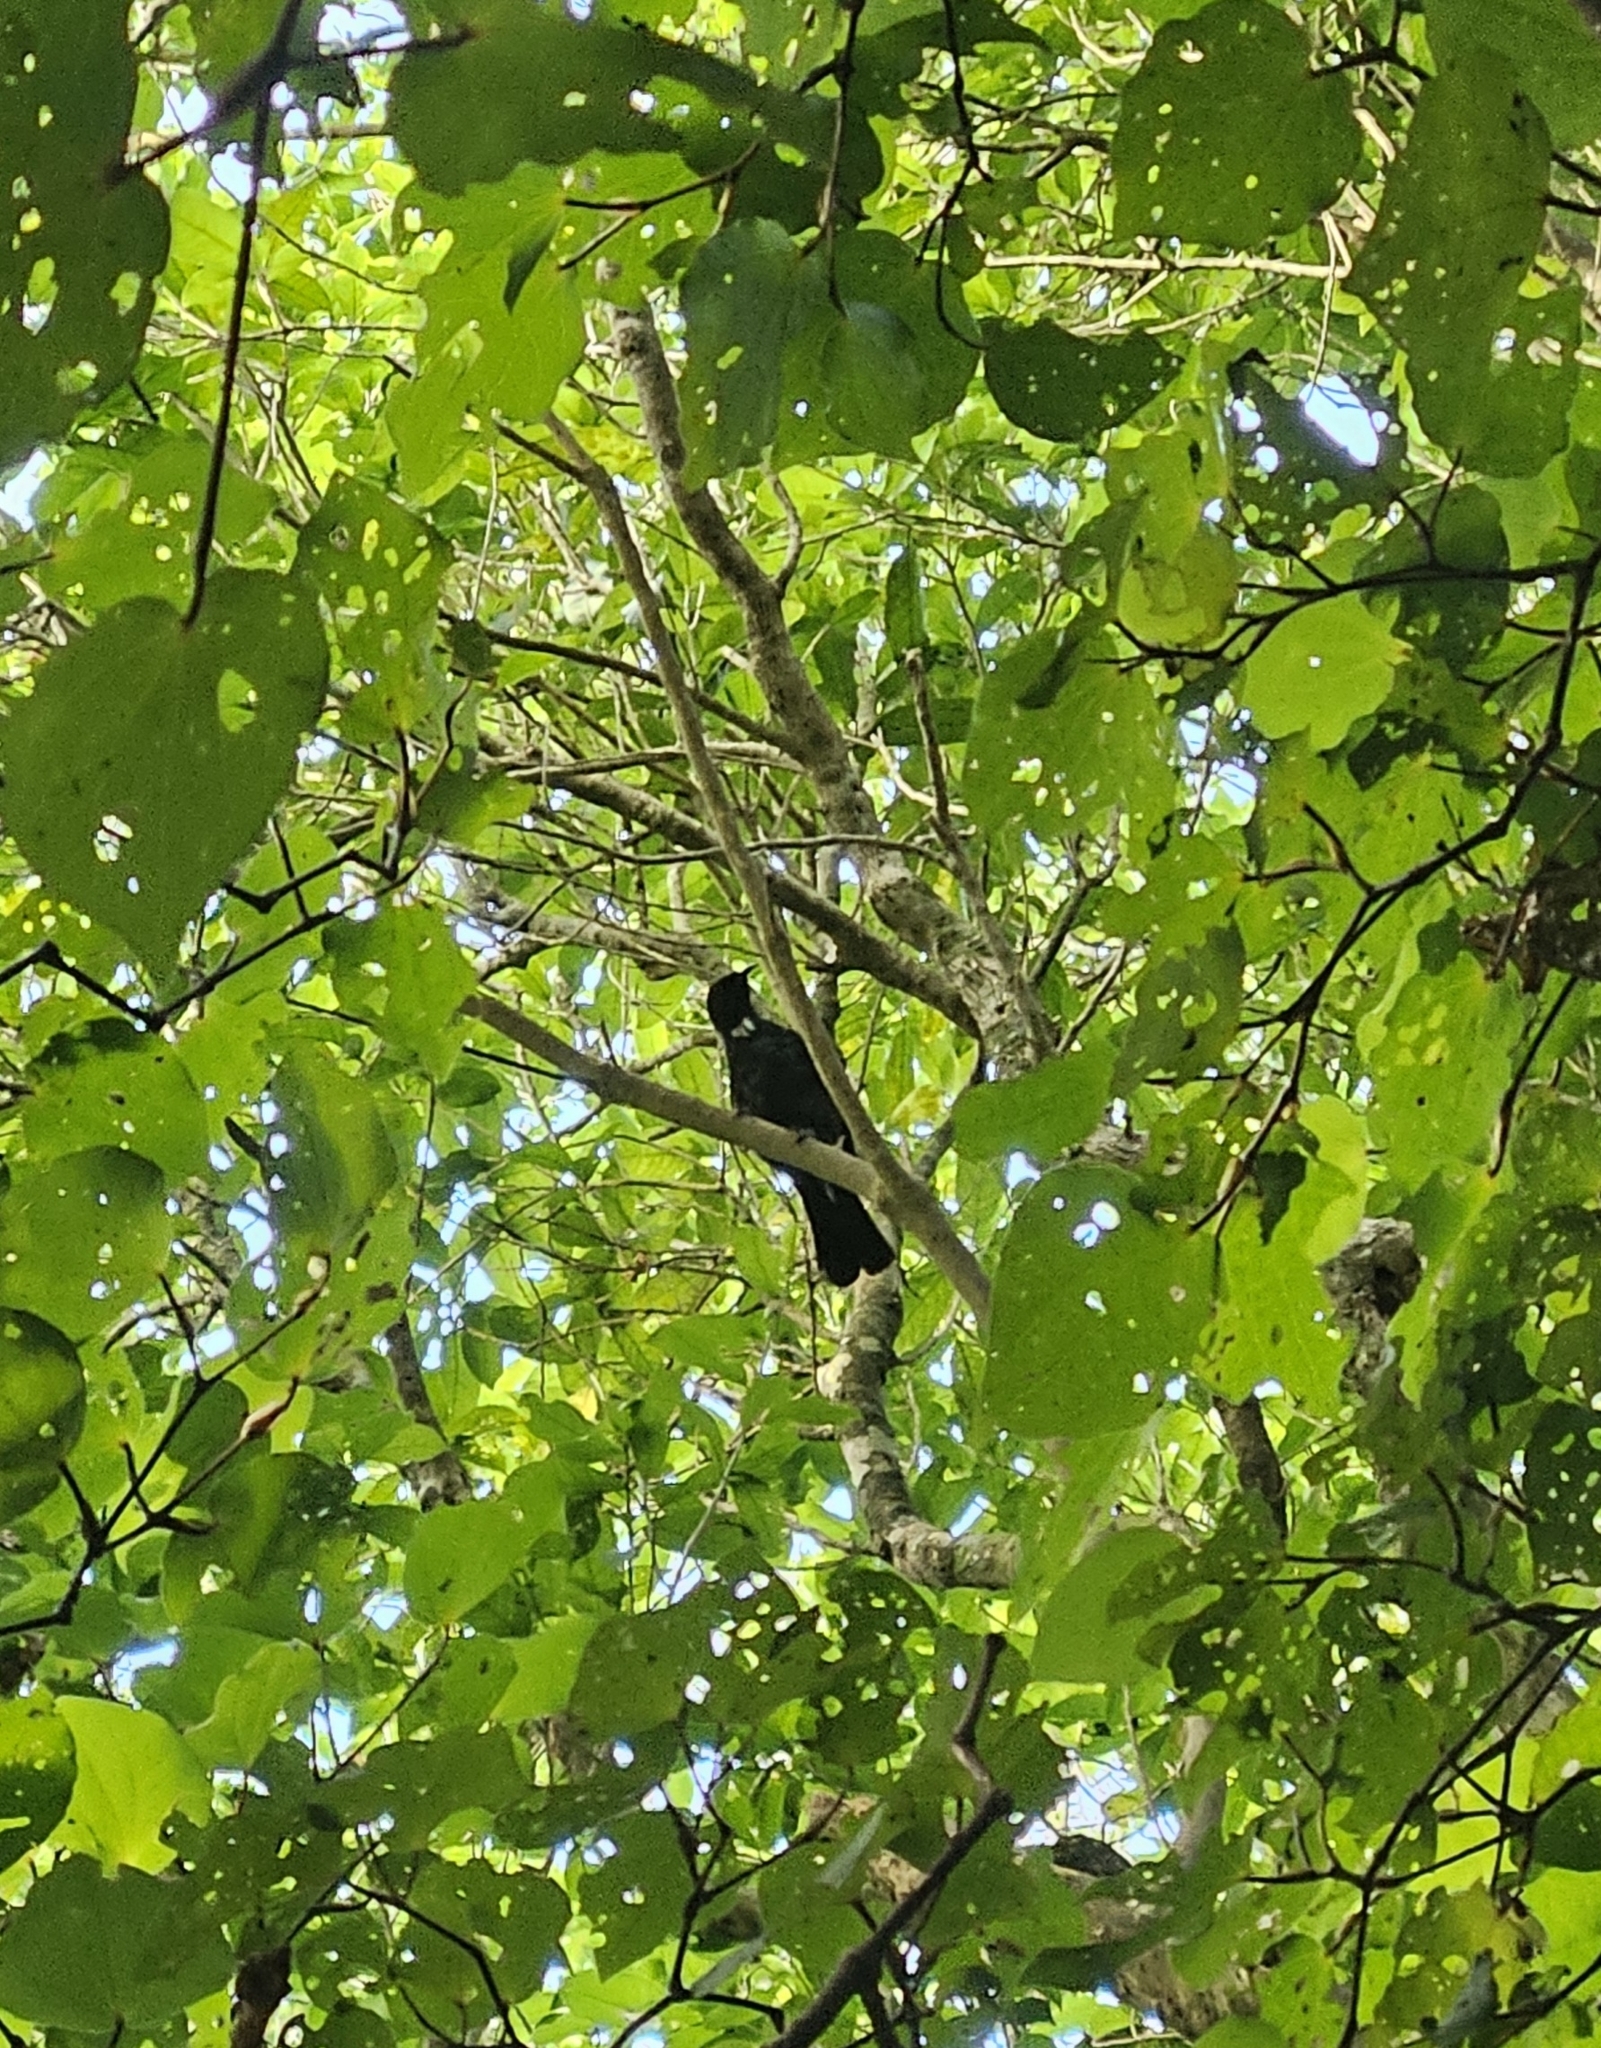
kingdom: Animalia
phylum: Chordata
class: Aves
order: Passeriformes
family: Meliphagidae
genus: Prosthemadera
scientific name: Prosthemadera novaeseelandiae
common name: Tui
